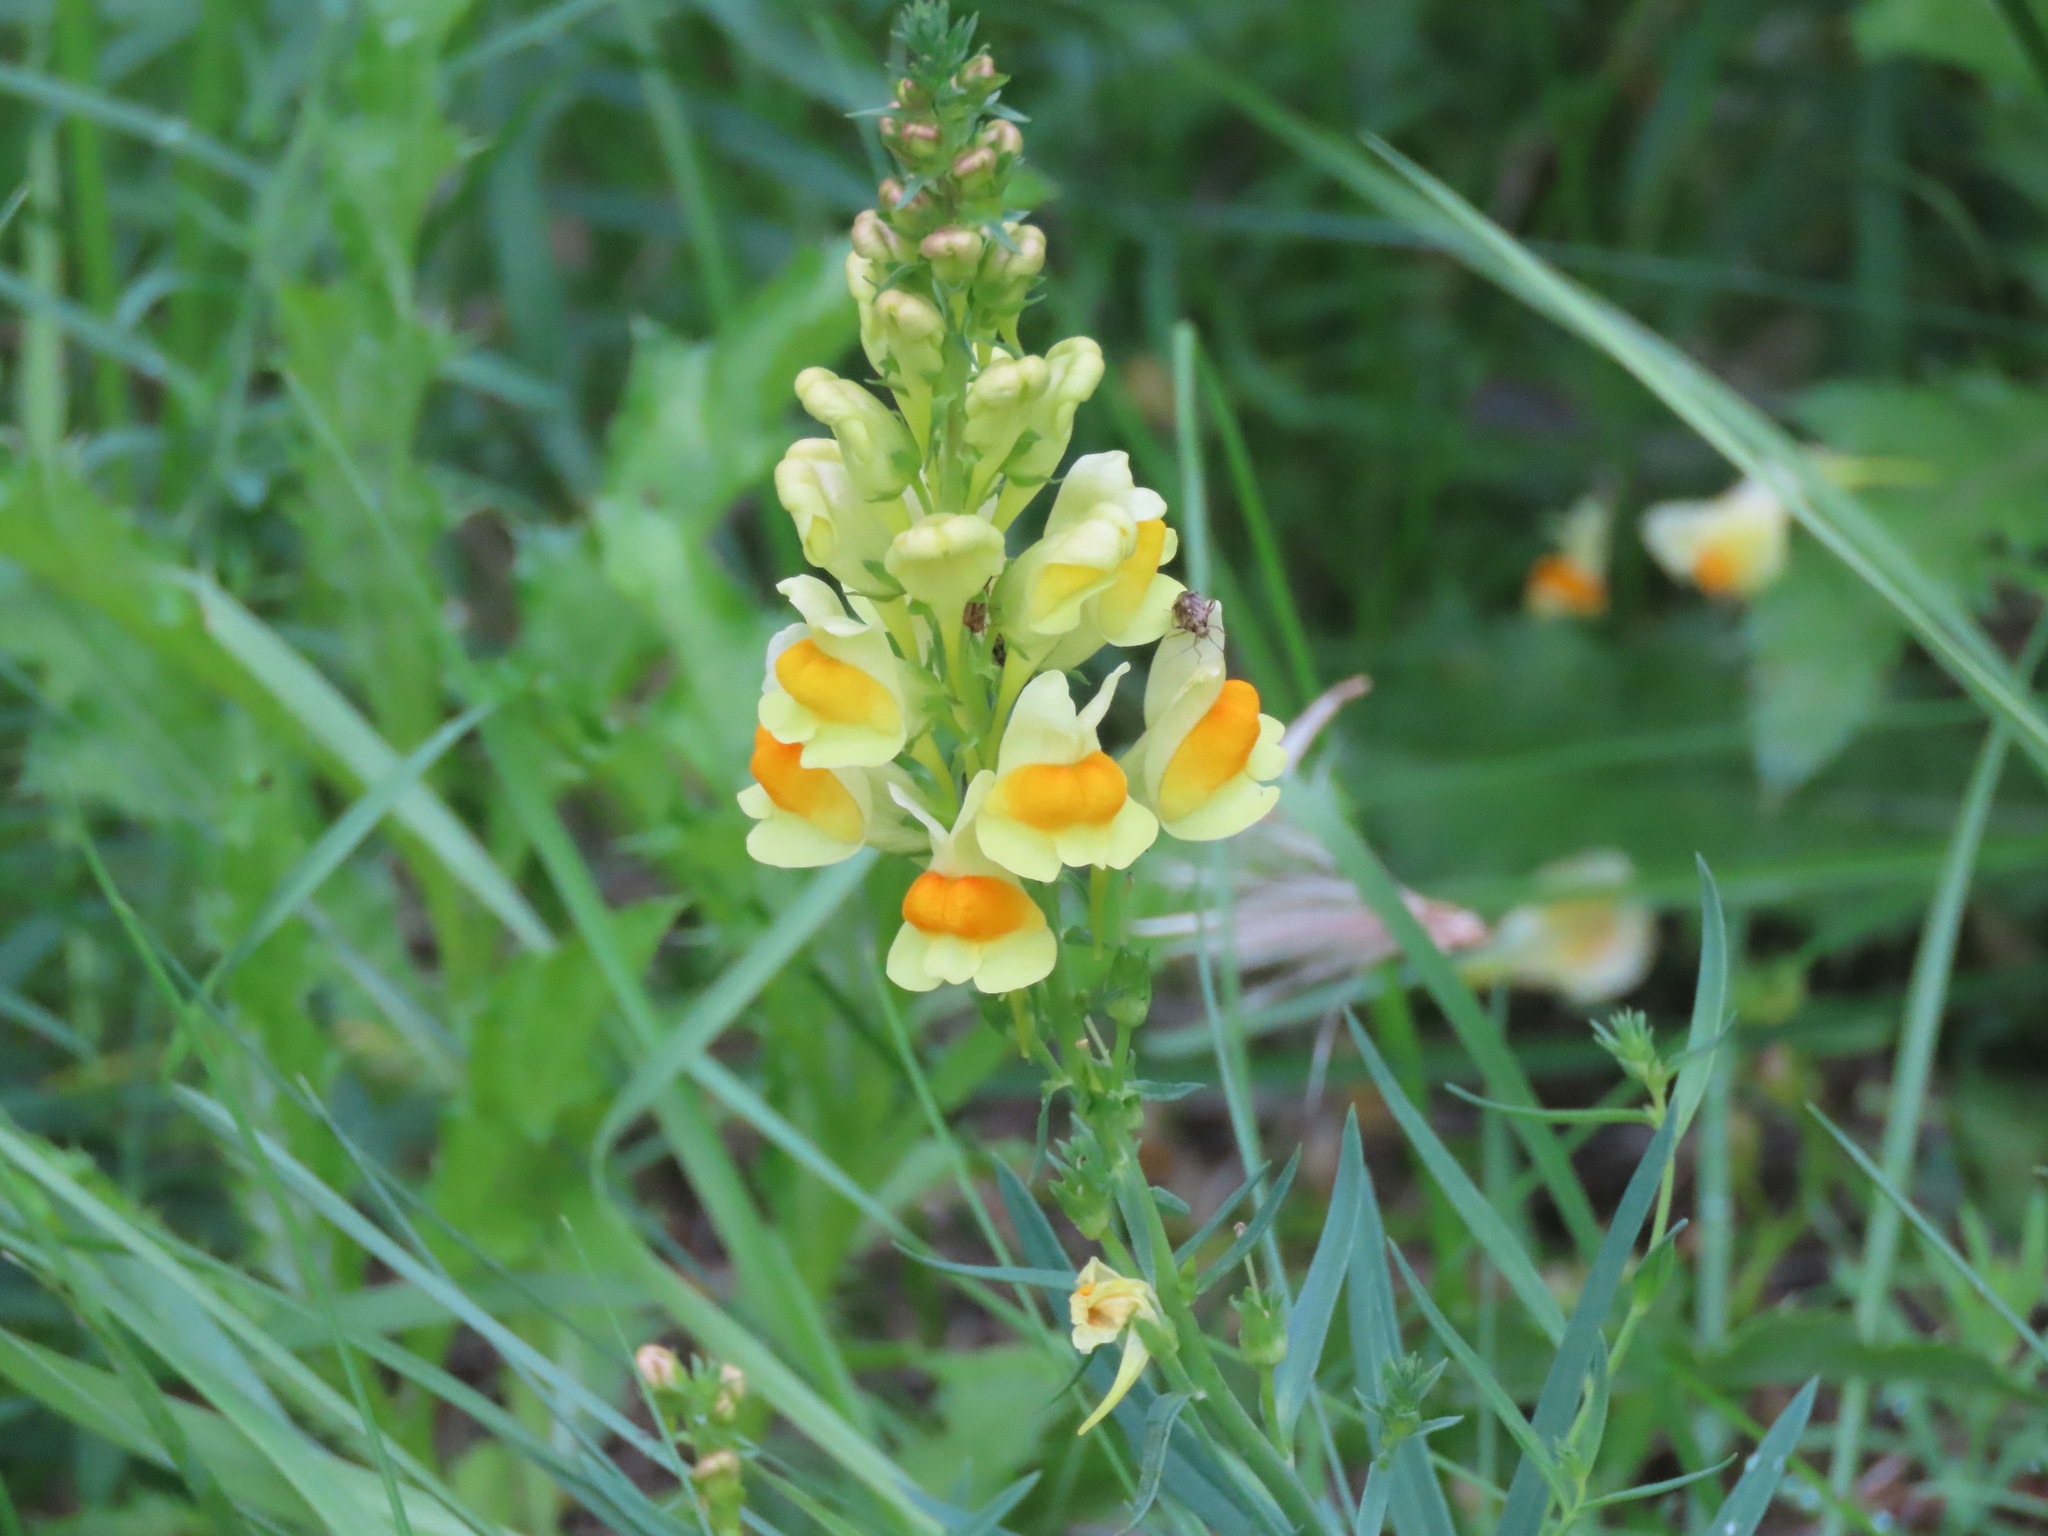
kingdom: Plantae
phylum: Tracheophyta
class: Magnoliopsida
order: Lamiales
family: Plantaginaceae
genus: Linaria
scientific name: Linaria vulgaris
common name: Butter and eggs
